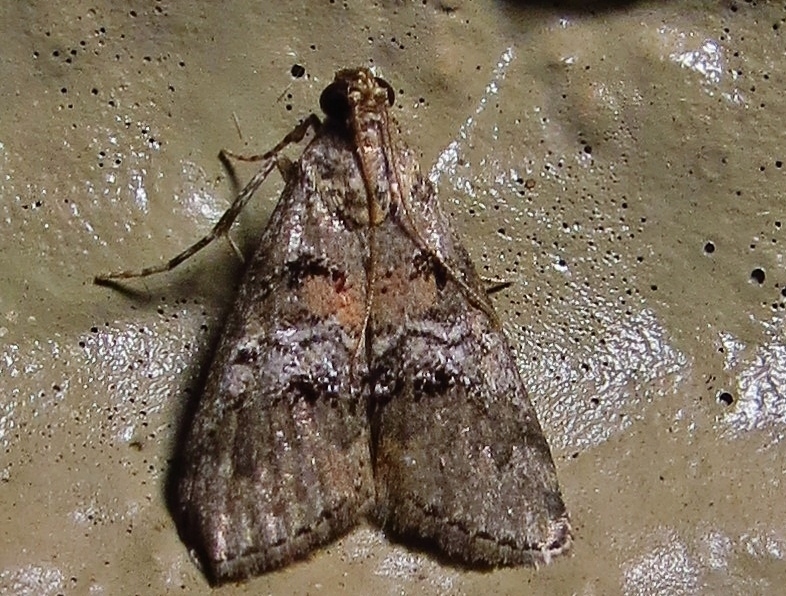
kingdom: Animalia
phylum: Arthropoda
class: Insecta
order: Lepidoptera
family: Pyralidae
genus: Pococera
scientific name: Pococera asperatella
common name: Maple webworm moth
